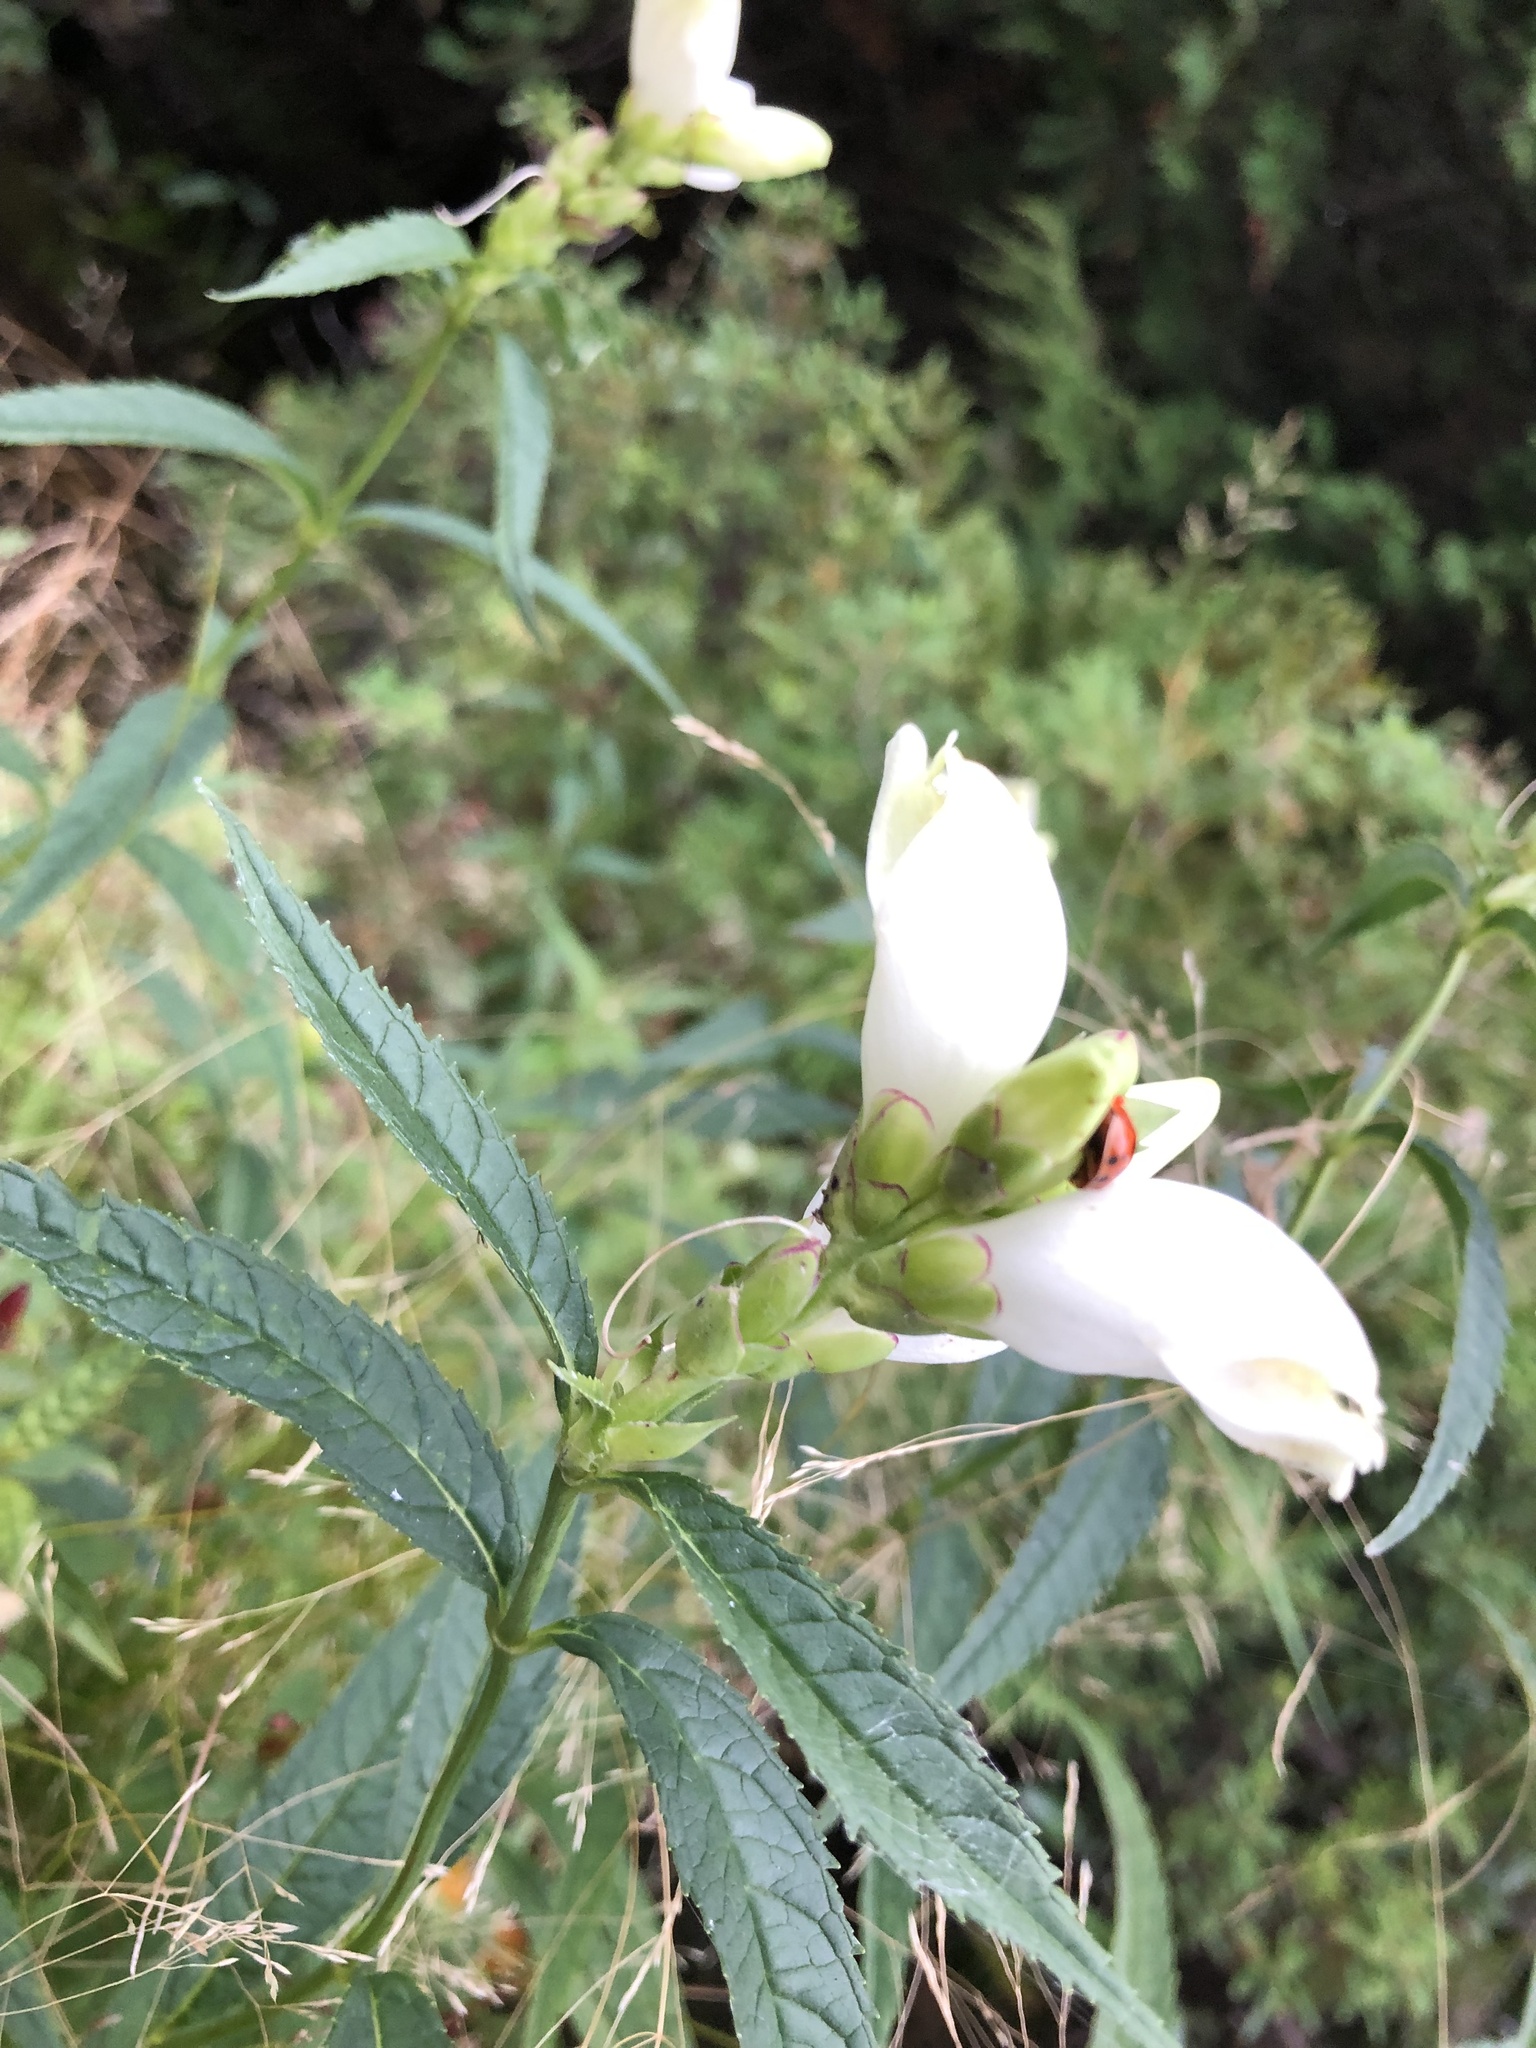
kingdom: Plantae
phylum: Tracheophyta
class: Magnoliopsida
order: Lamiales
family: Plantaginaceae
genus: Chelone
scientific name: Chelone glabra
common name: Snakehead
